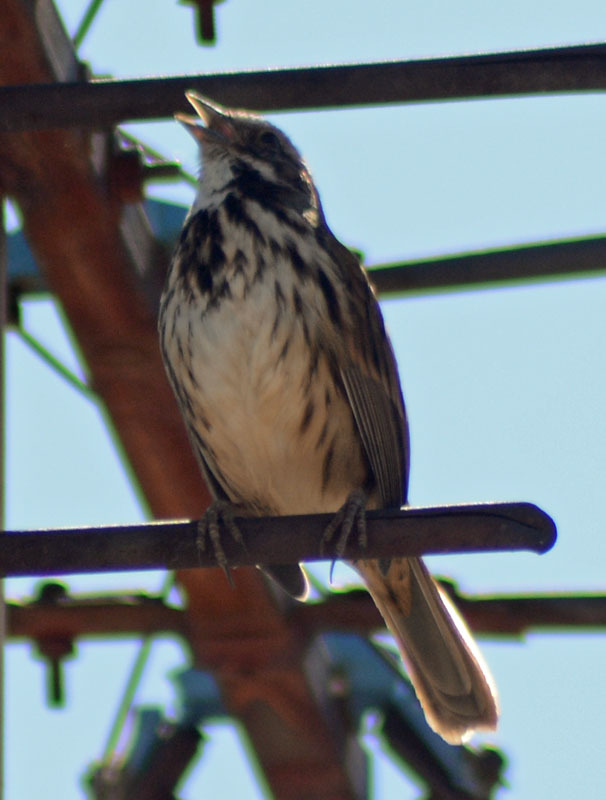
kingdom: Animalia
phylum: Chordata
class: Aves
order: Passeriformes
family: Passerellidae
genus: Melospiza
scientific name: Melospiza melodia
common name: Song sparrow
